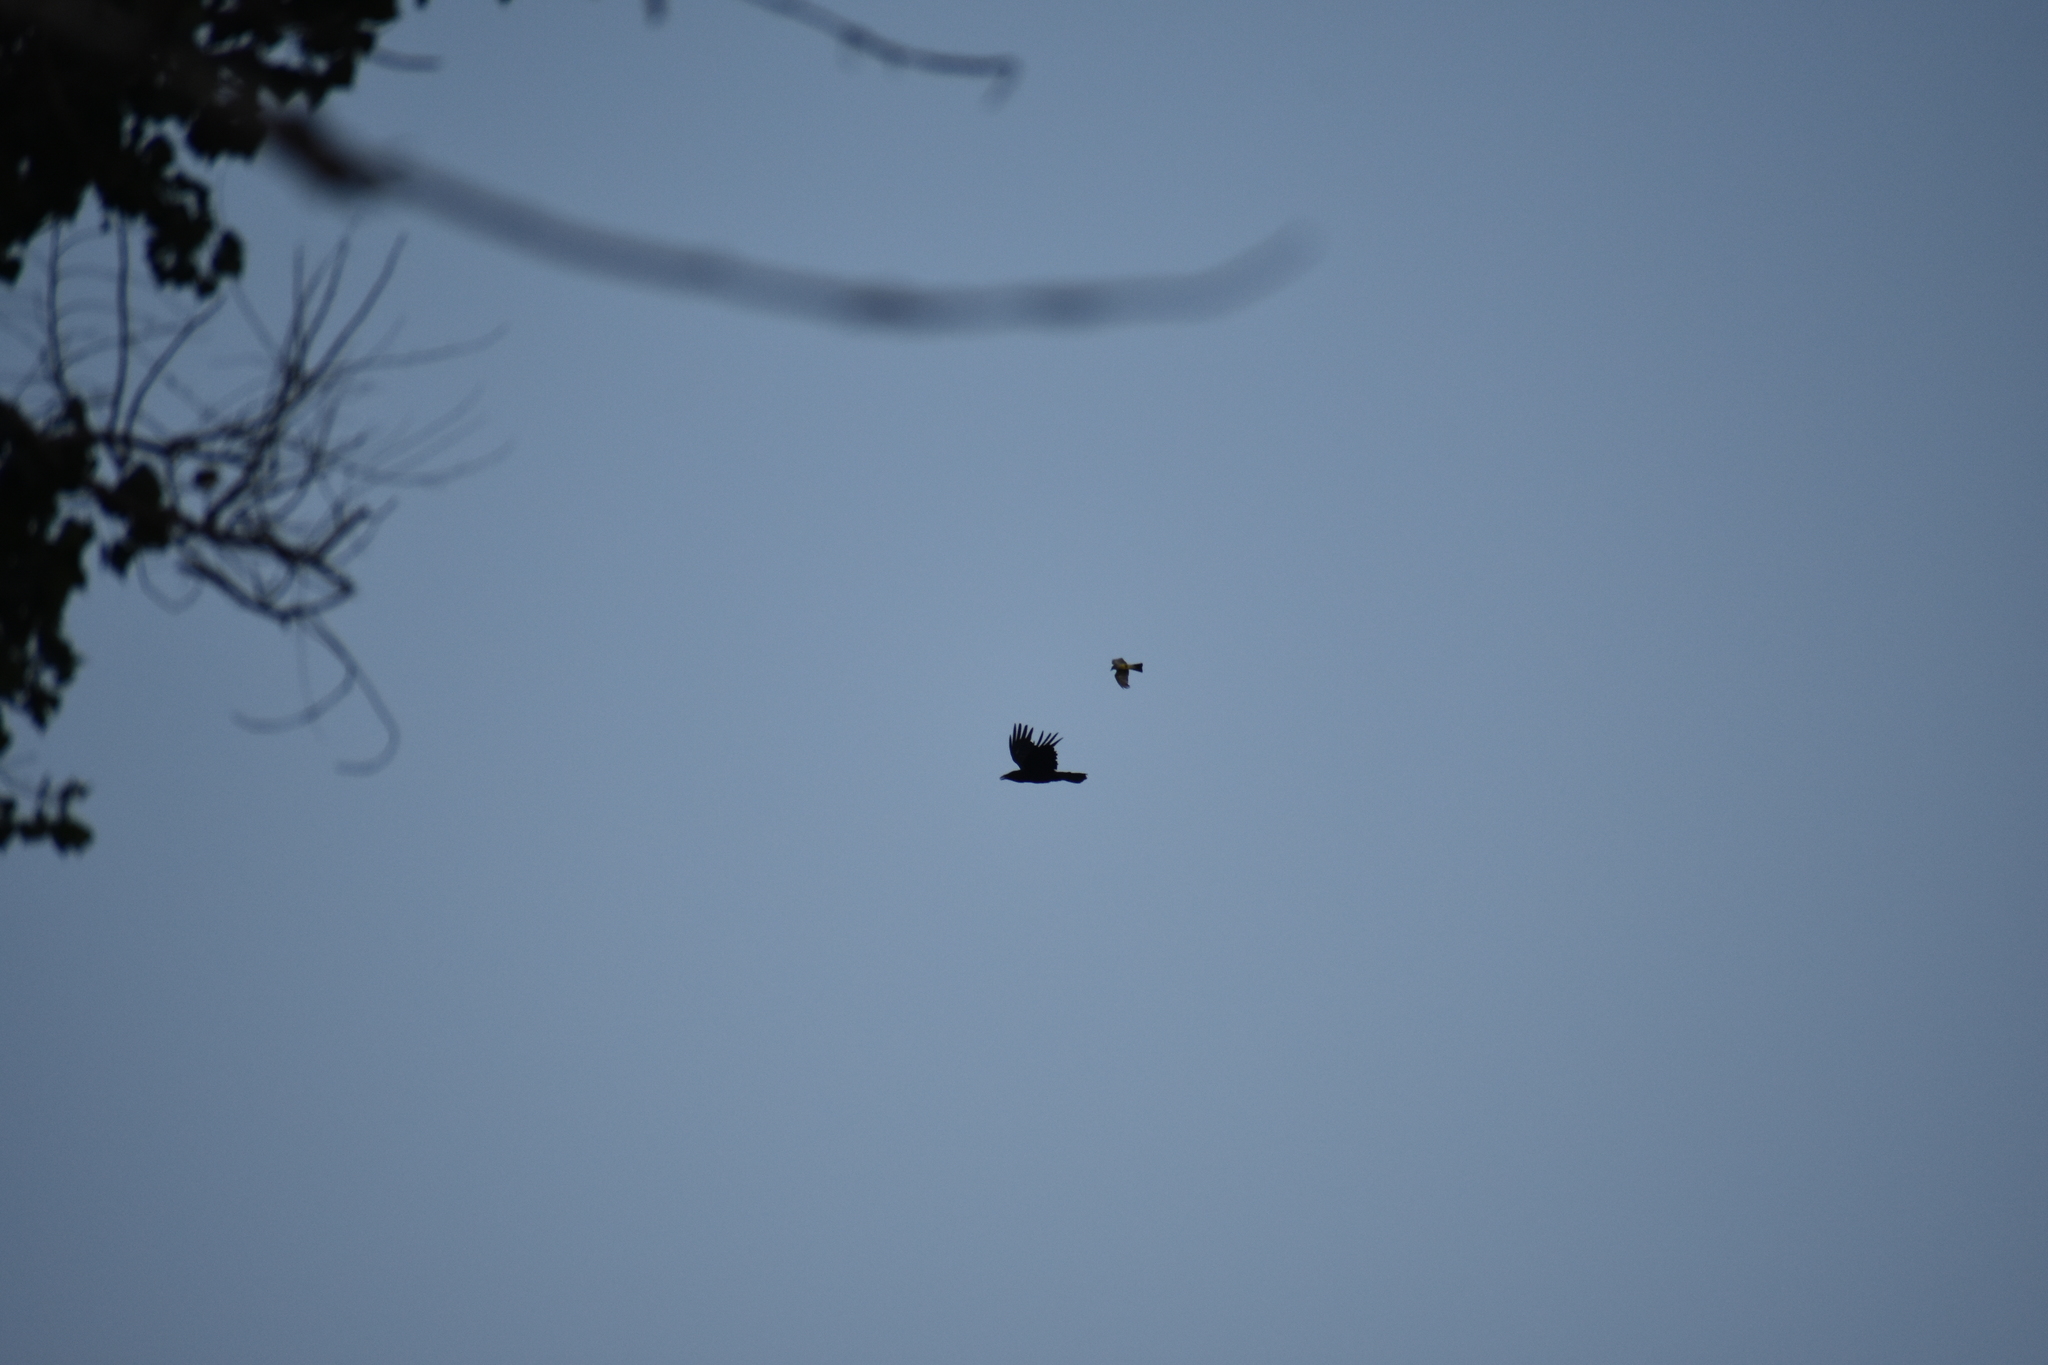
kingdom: Animalia
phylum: Chordata
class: Aves
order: Passeriformes
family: Tyrannidae
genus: Tyrannus
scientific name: Tyrannus verticalis
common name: Western kingbird
